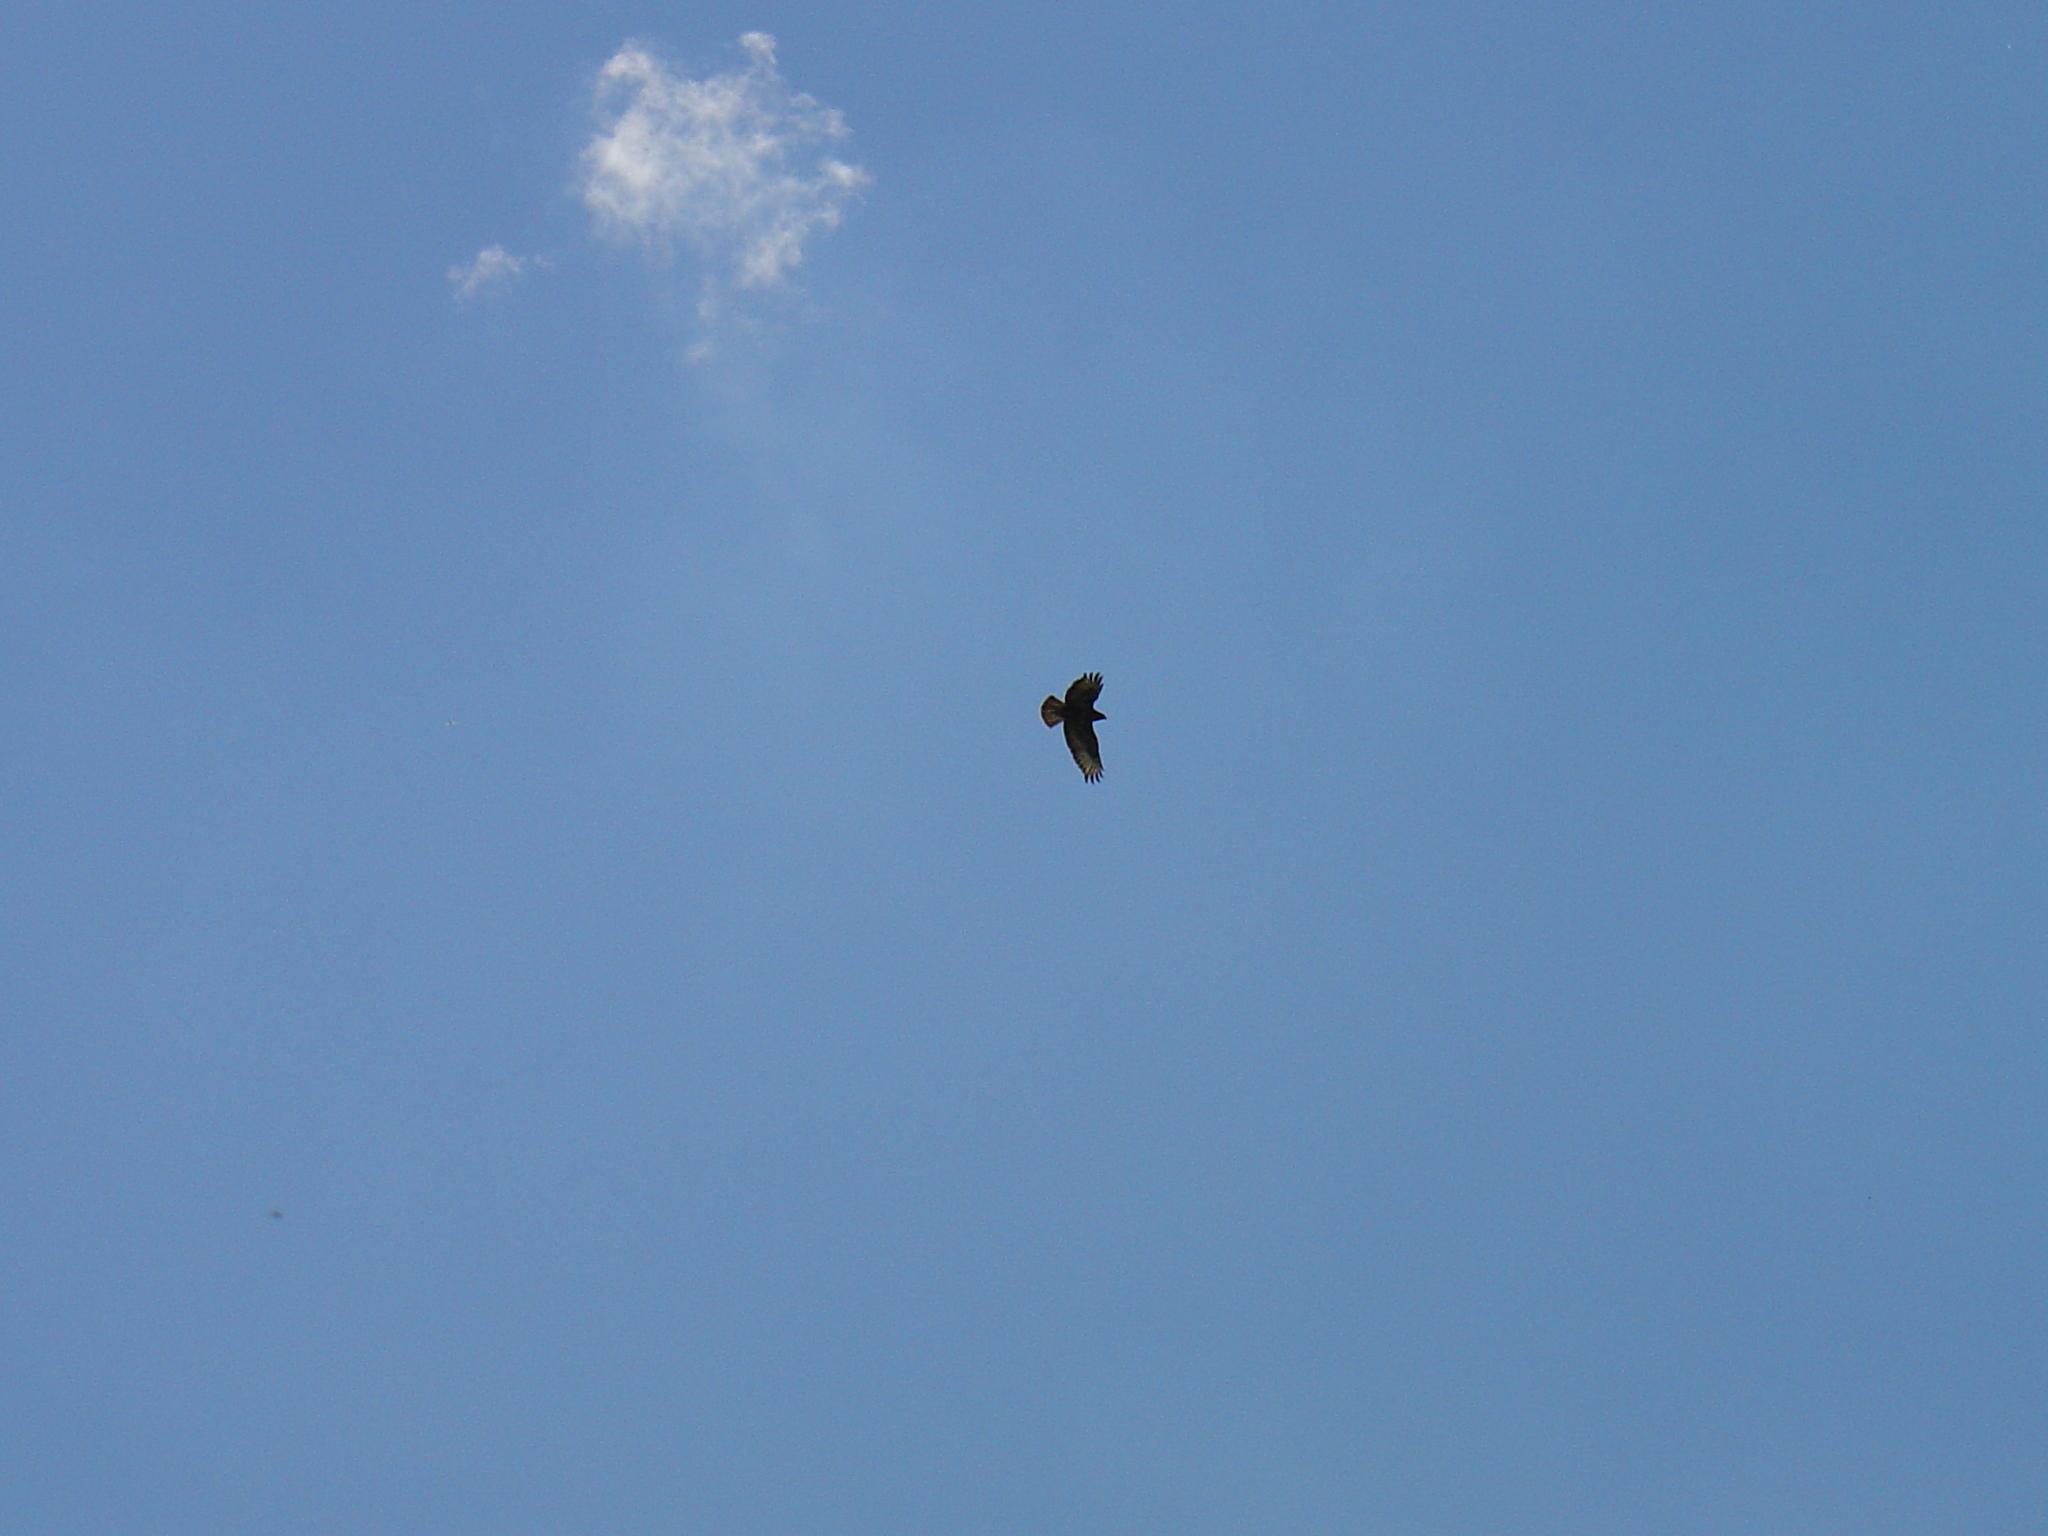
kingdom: Animalia
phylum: Chordata
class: Aves
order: Accipitriformes
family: Accipitridae
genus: Buteo
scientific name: Buteo buteo
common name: Common buzzard
